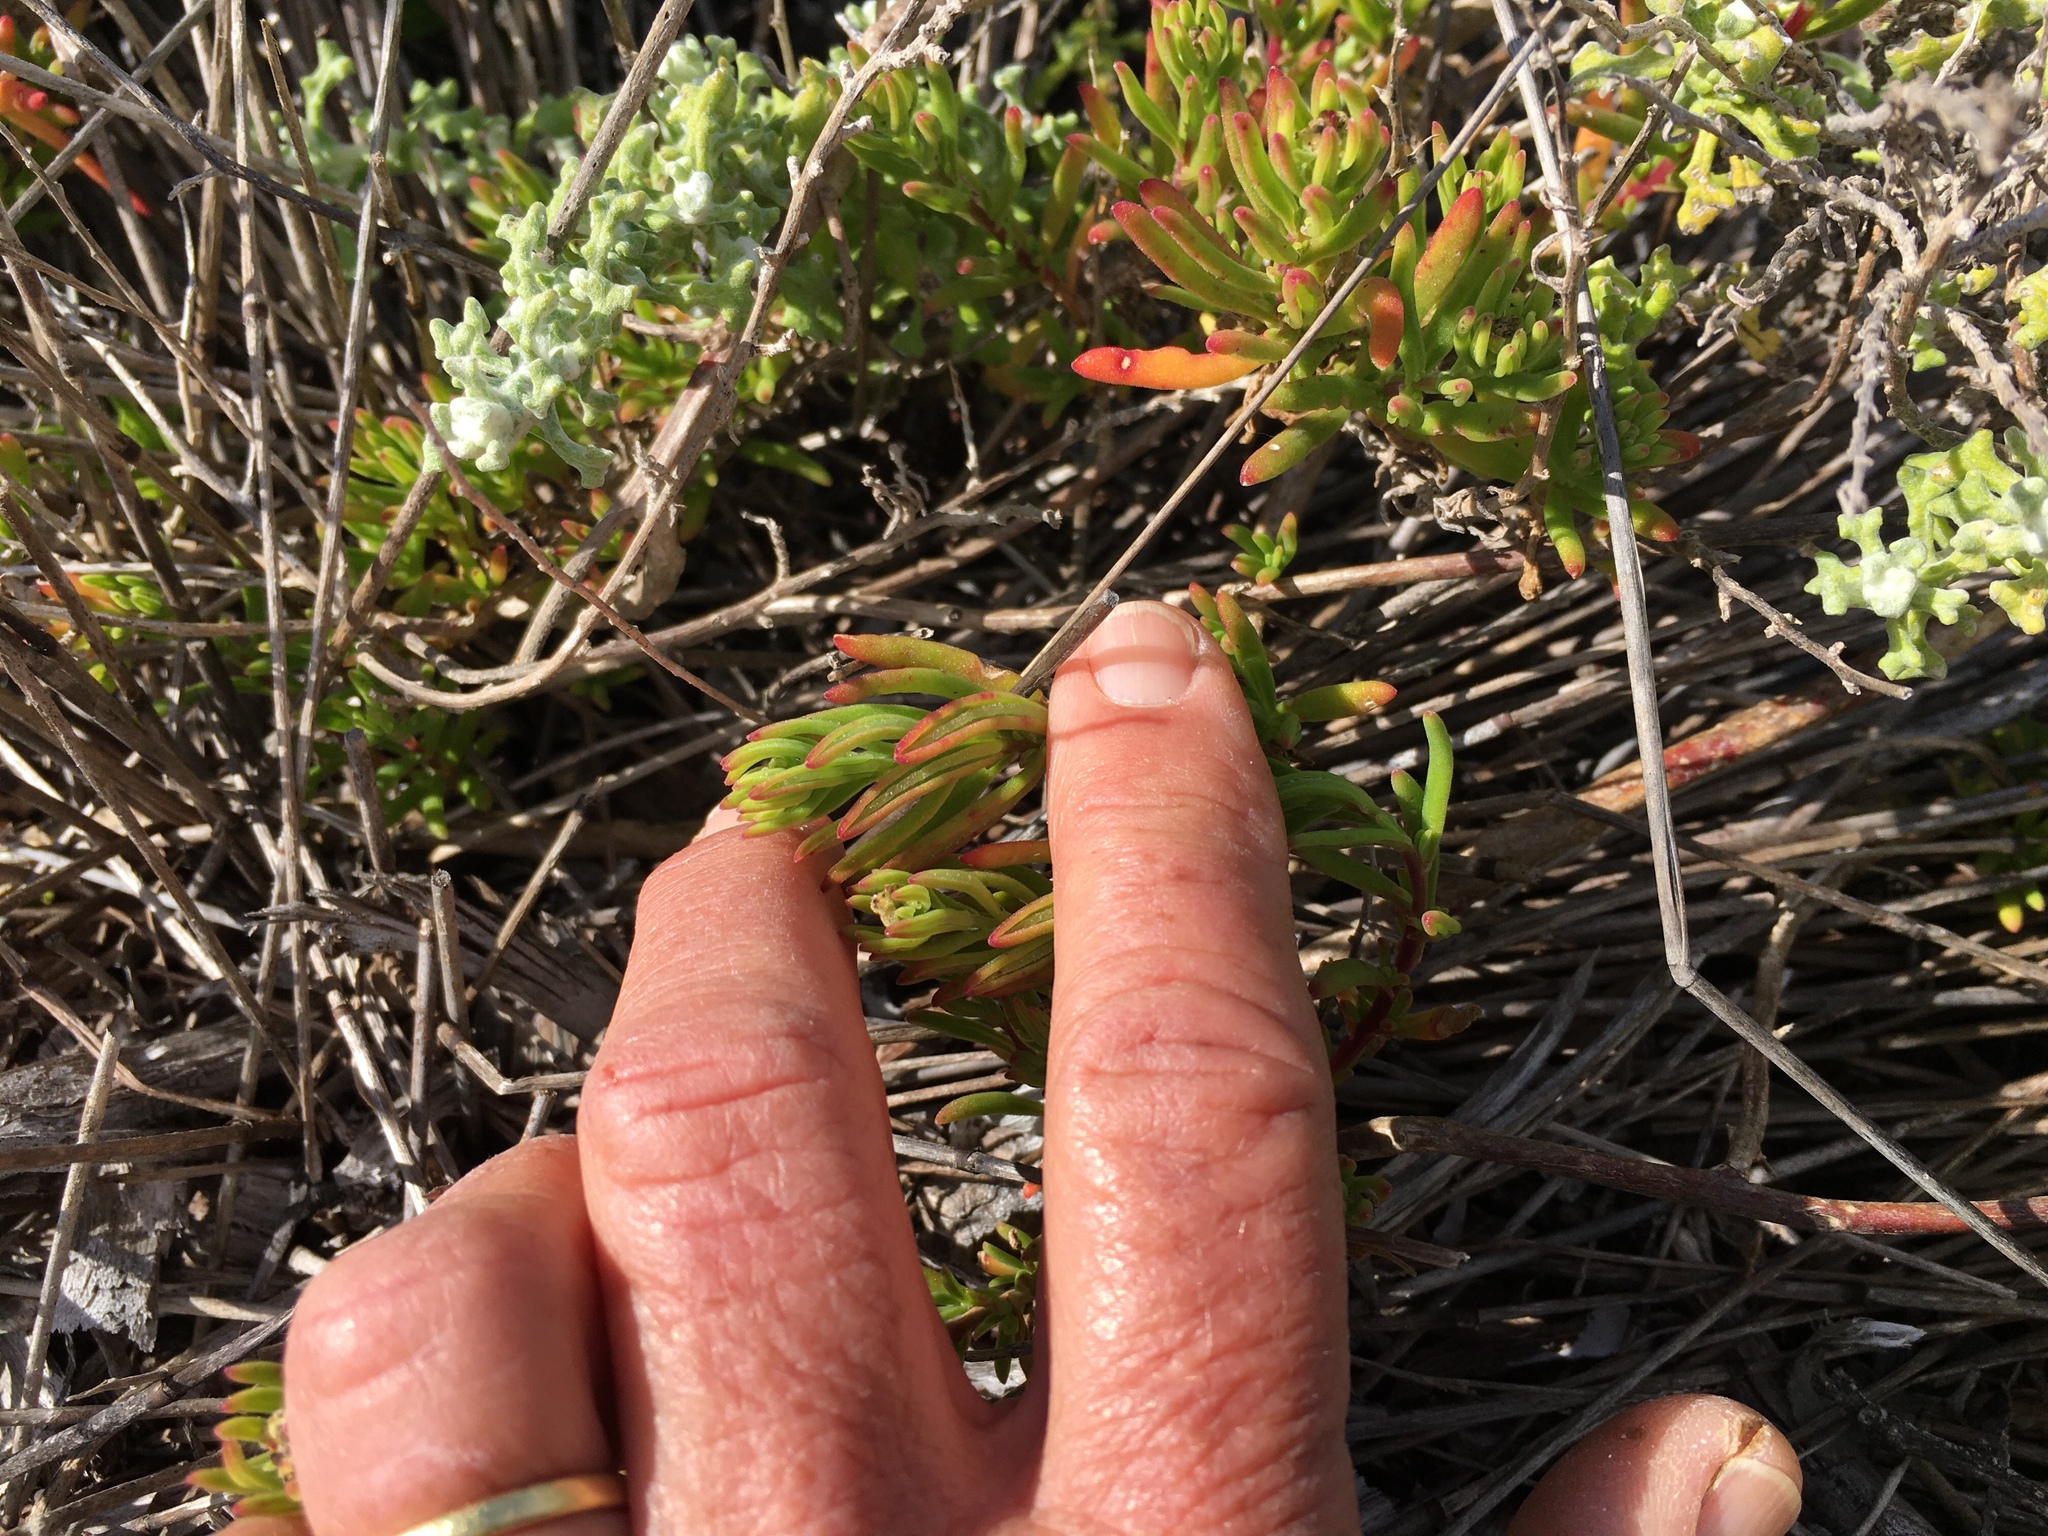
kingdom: Plantae
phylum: Tracheophyta
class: Magnoliopsida
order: Caryophyllales
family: Aizoaceae
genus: Tetragonia
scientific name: Tetragonia fruticosa
